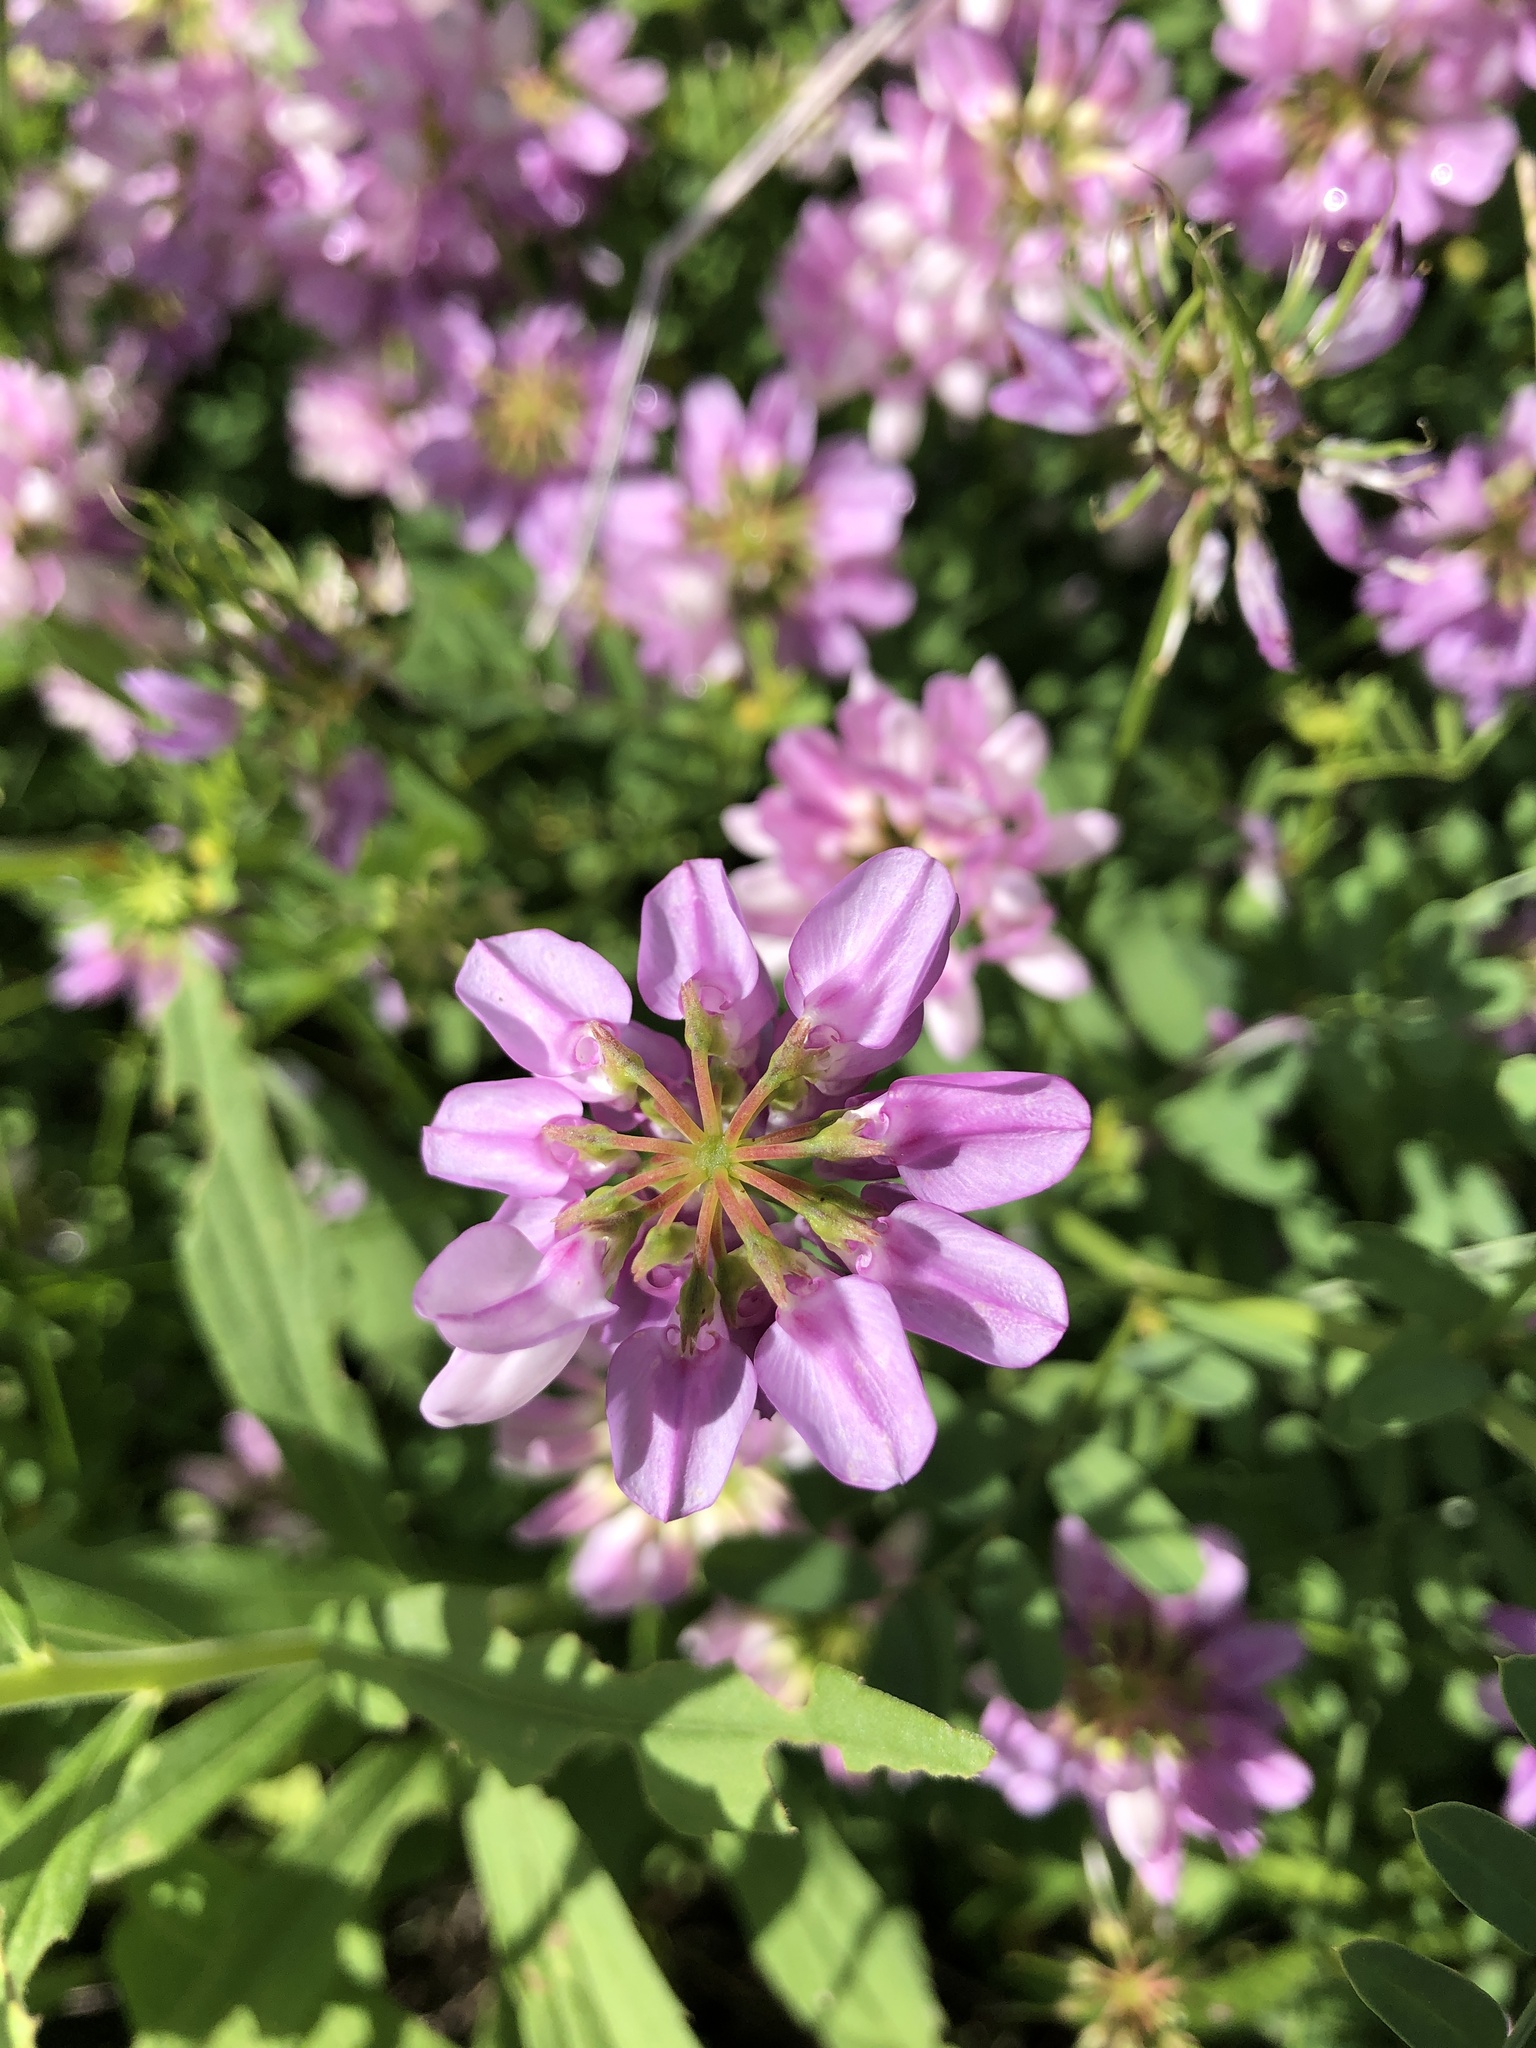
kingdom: Plantae
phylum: Tracheophyta
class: Magnoliopsida
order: Fabales
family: Fabaceae
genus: Coronilla
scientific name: Coronilla varia
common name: Crownvetch
